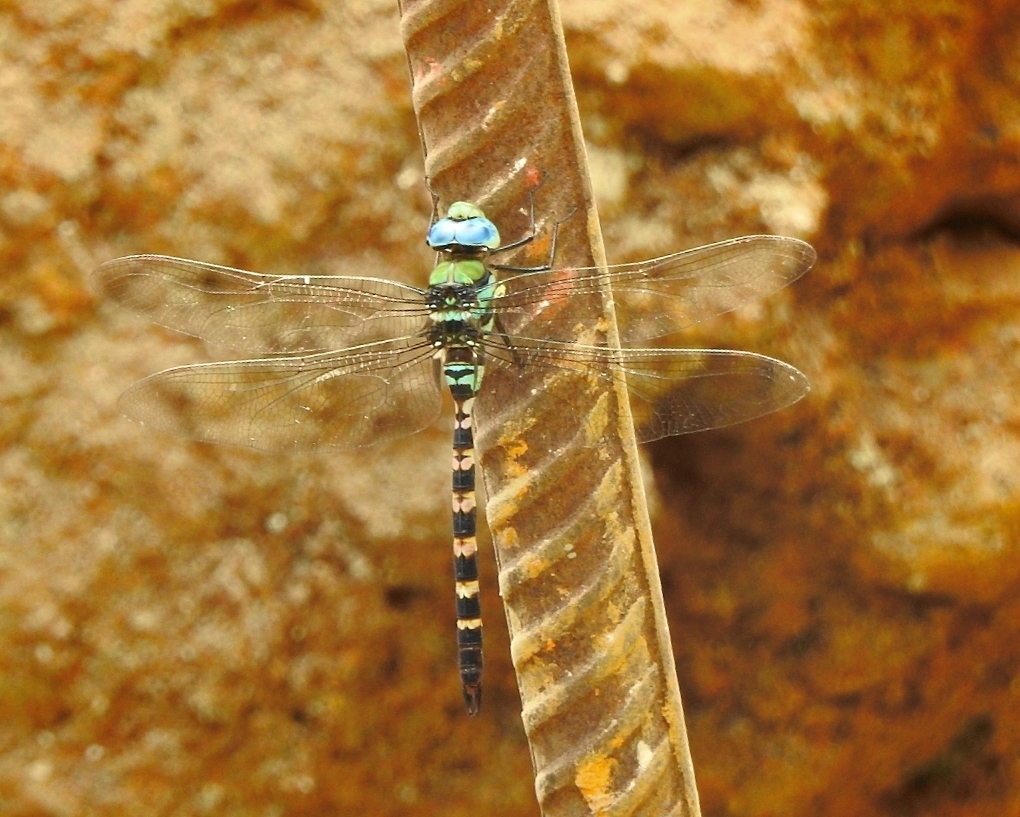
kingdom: Animalia
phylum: Arthropoda
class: Insecta
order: Odonata
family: Aeshnidae
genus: Anax
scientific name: Anax immaculifrons
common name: Magnificent emperor
